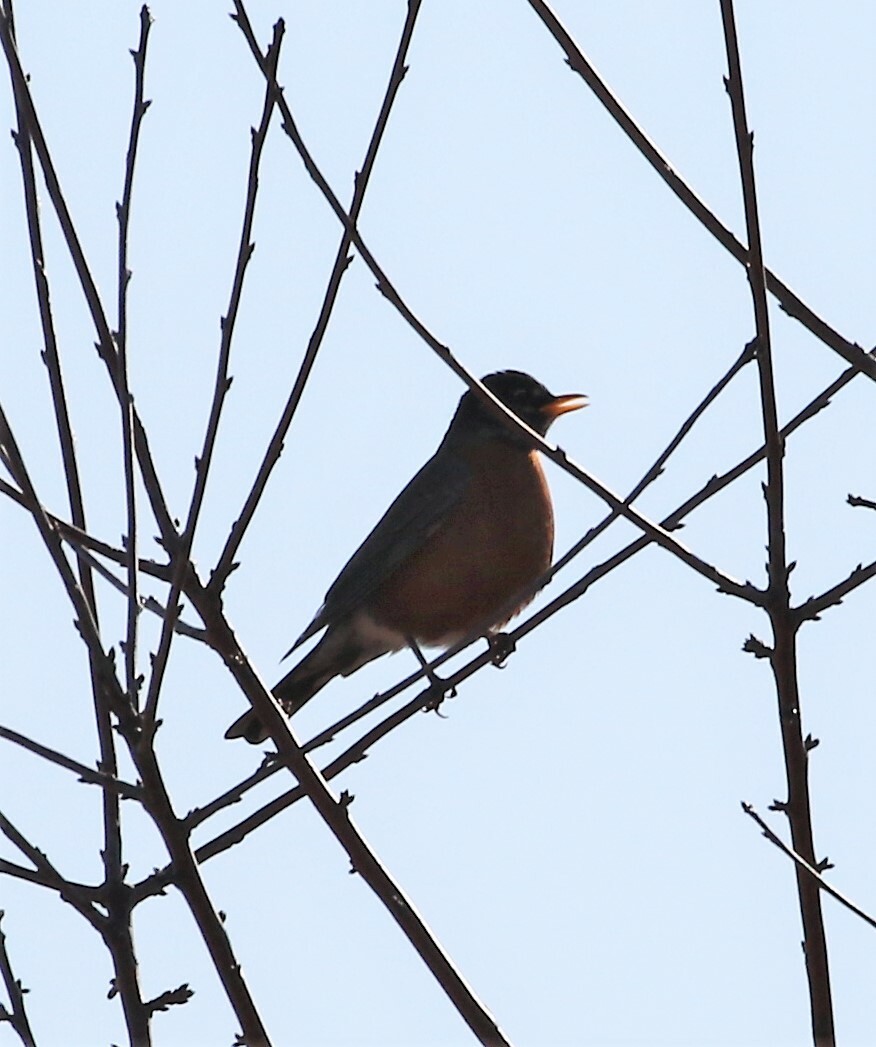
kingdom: Animalia
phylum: Chordata
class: Aves
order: Passeriformes
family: Turdidae
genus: Turdus
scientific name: Turdus migratorius
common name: American robin
